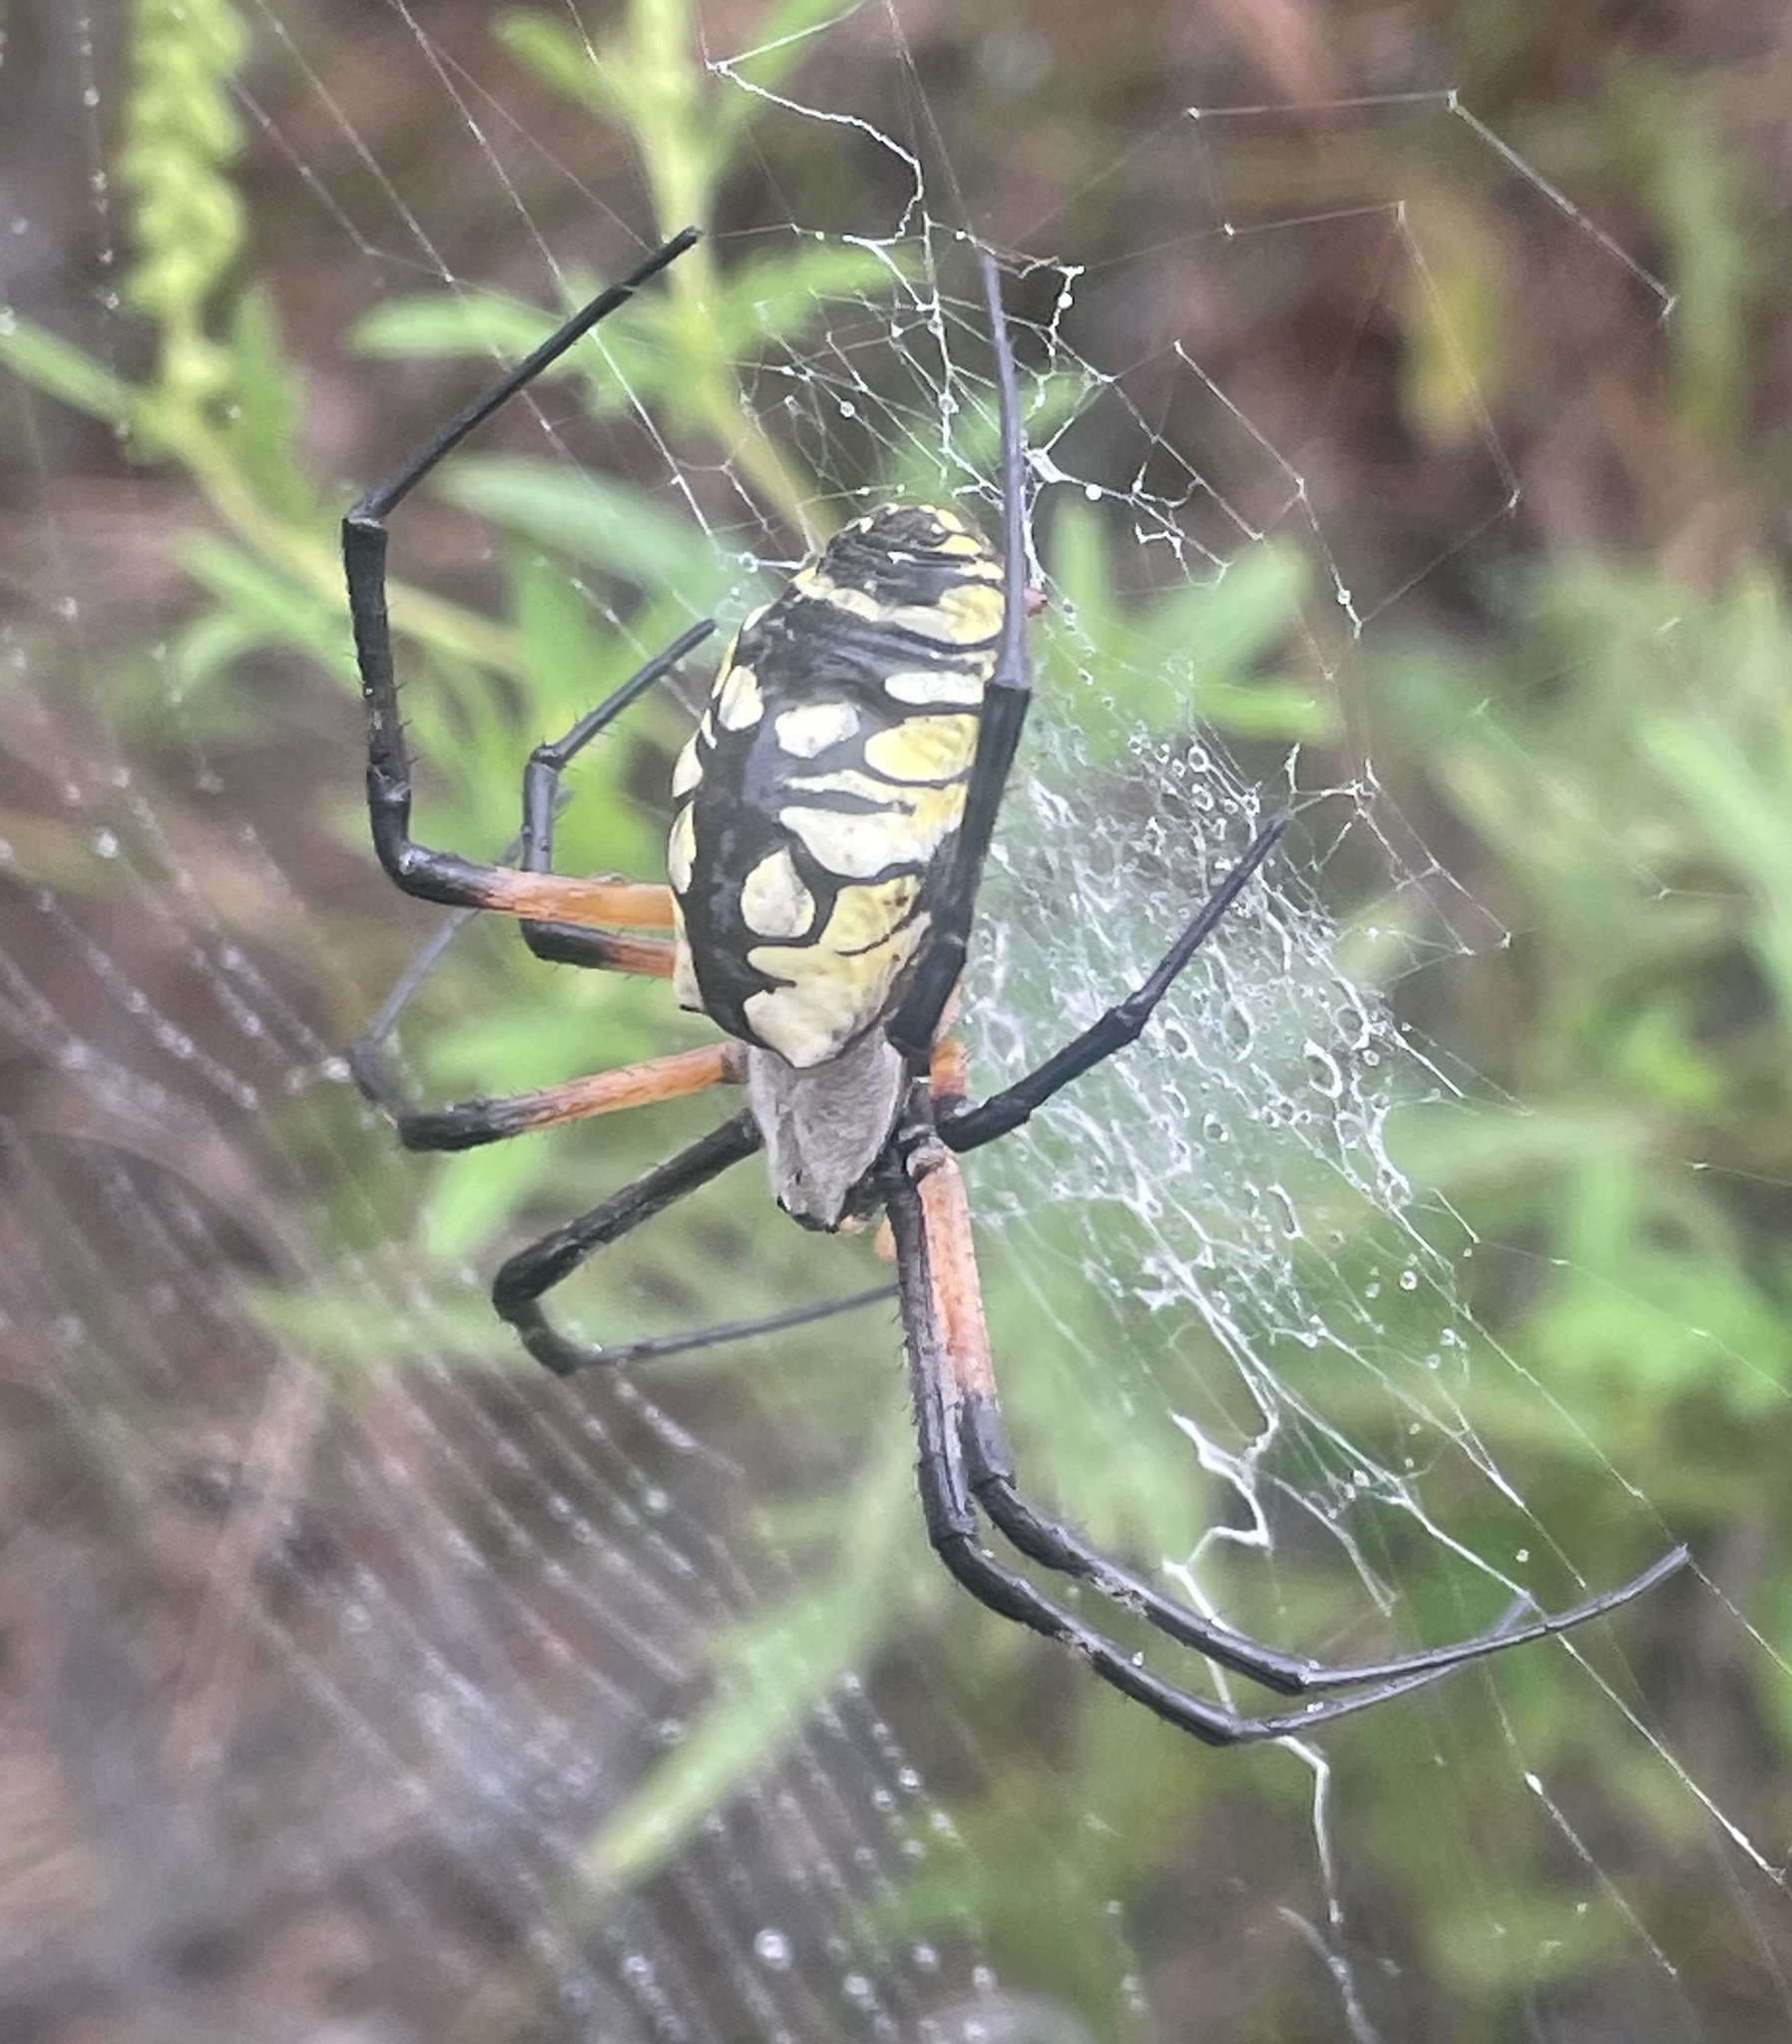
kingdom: Animalia
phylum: Arthropoda
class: Arachnida
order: Araneae
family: Araneidae
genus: Argiope
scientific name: Argiope aurantia
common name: Orb weavers
